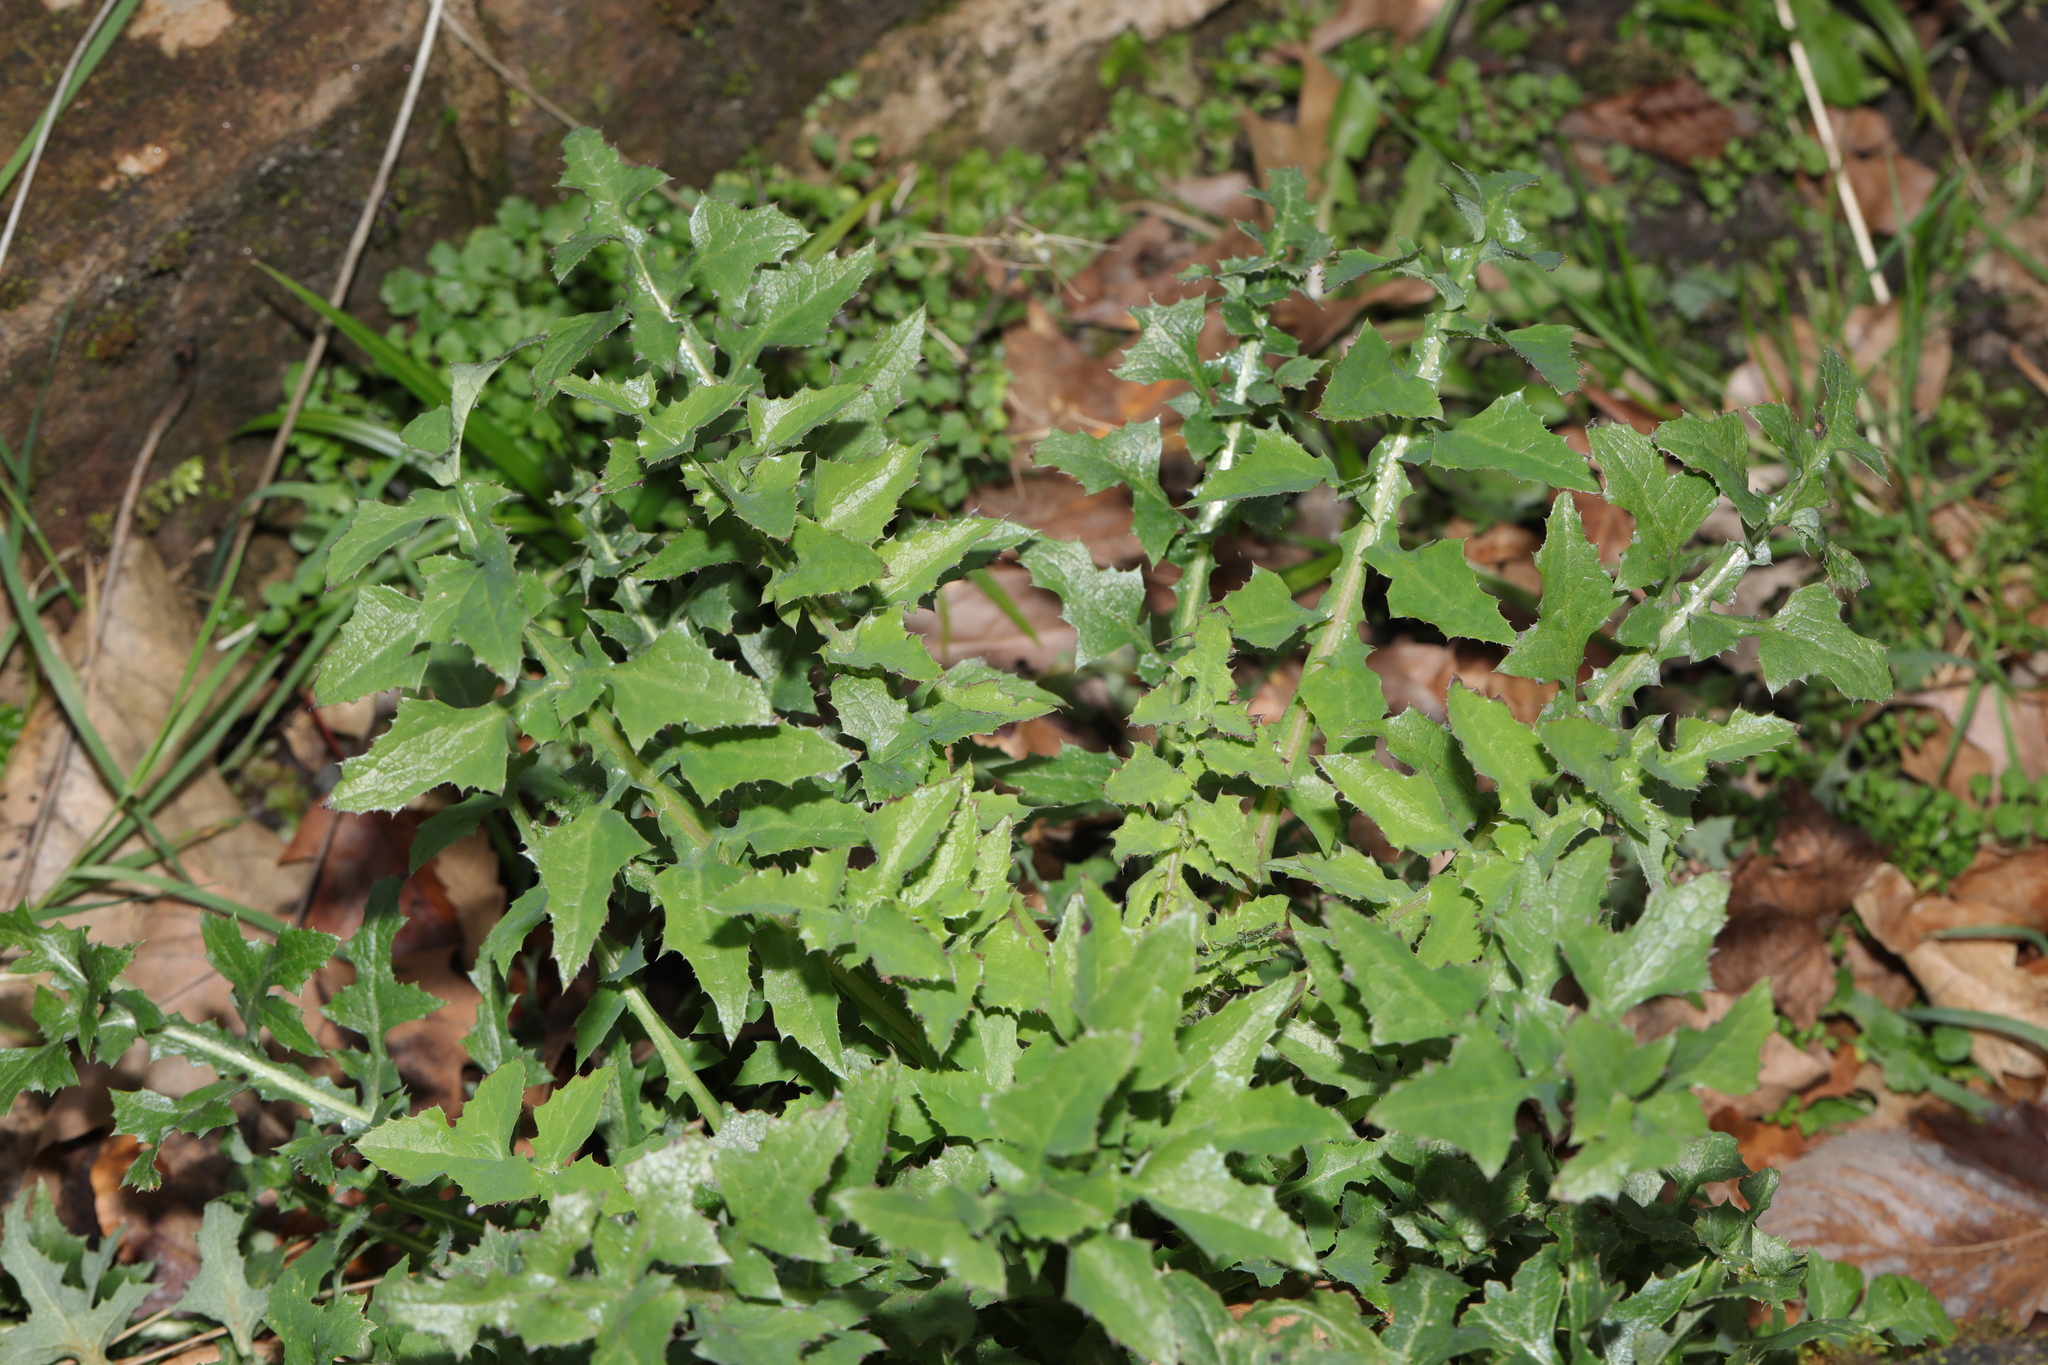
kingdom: Plantae
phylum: Tracheophyta
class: Magnoliopsida
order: Asterales
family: Asteraceae
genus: Sonchus
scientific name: Sonchus oleraceus
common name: Common sowthistle
